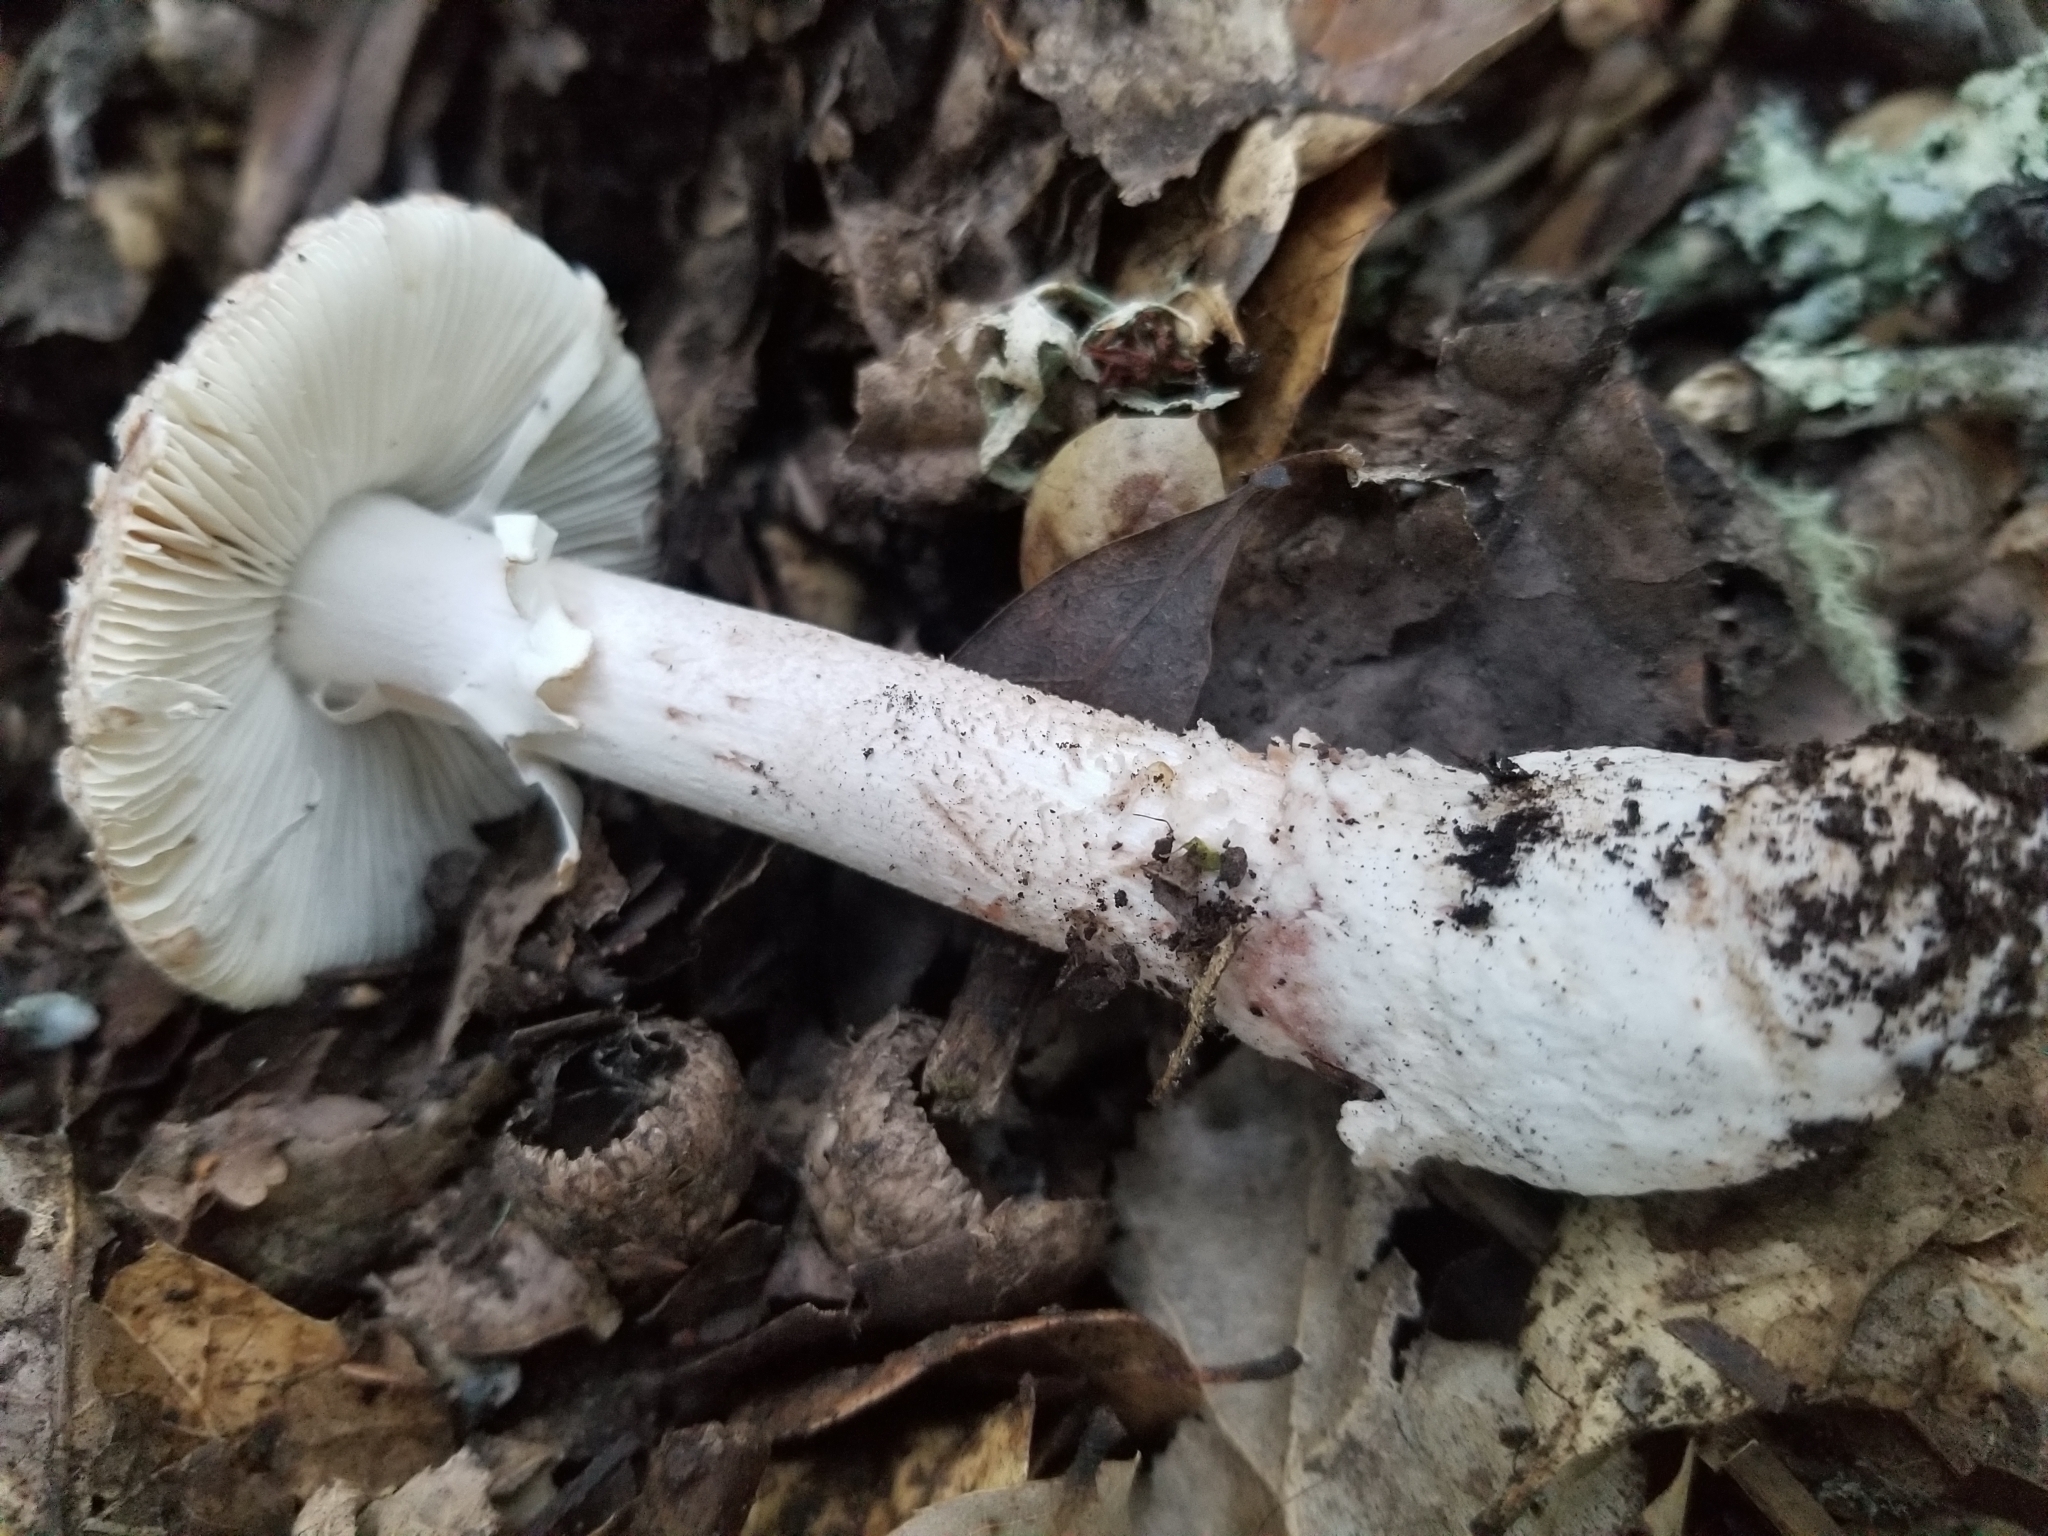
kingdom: Fungi
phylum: Basidiomycota
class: Agaricomycetes
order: Agaricales
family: Amanitaceae
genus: Amanita
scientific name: Amanita novinupta
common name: Blushing bride
